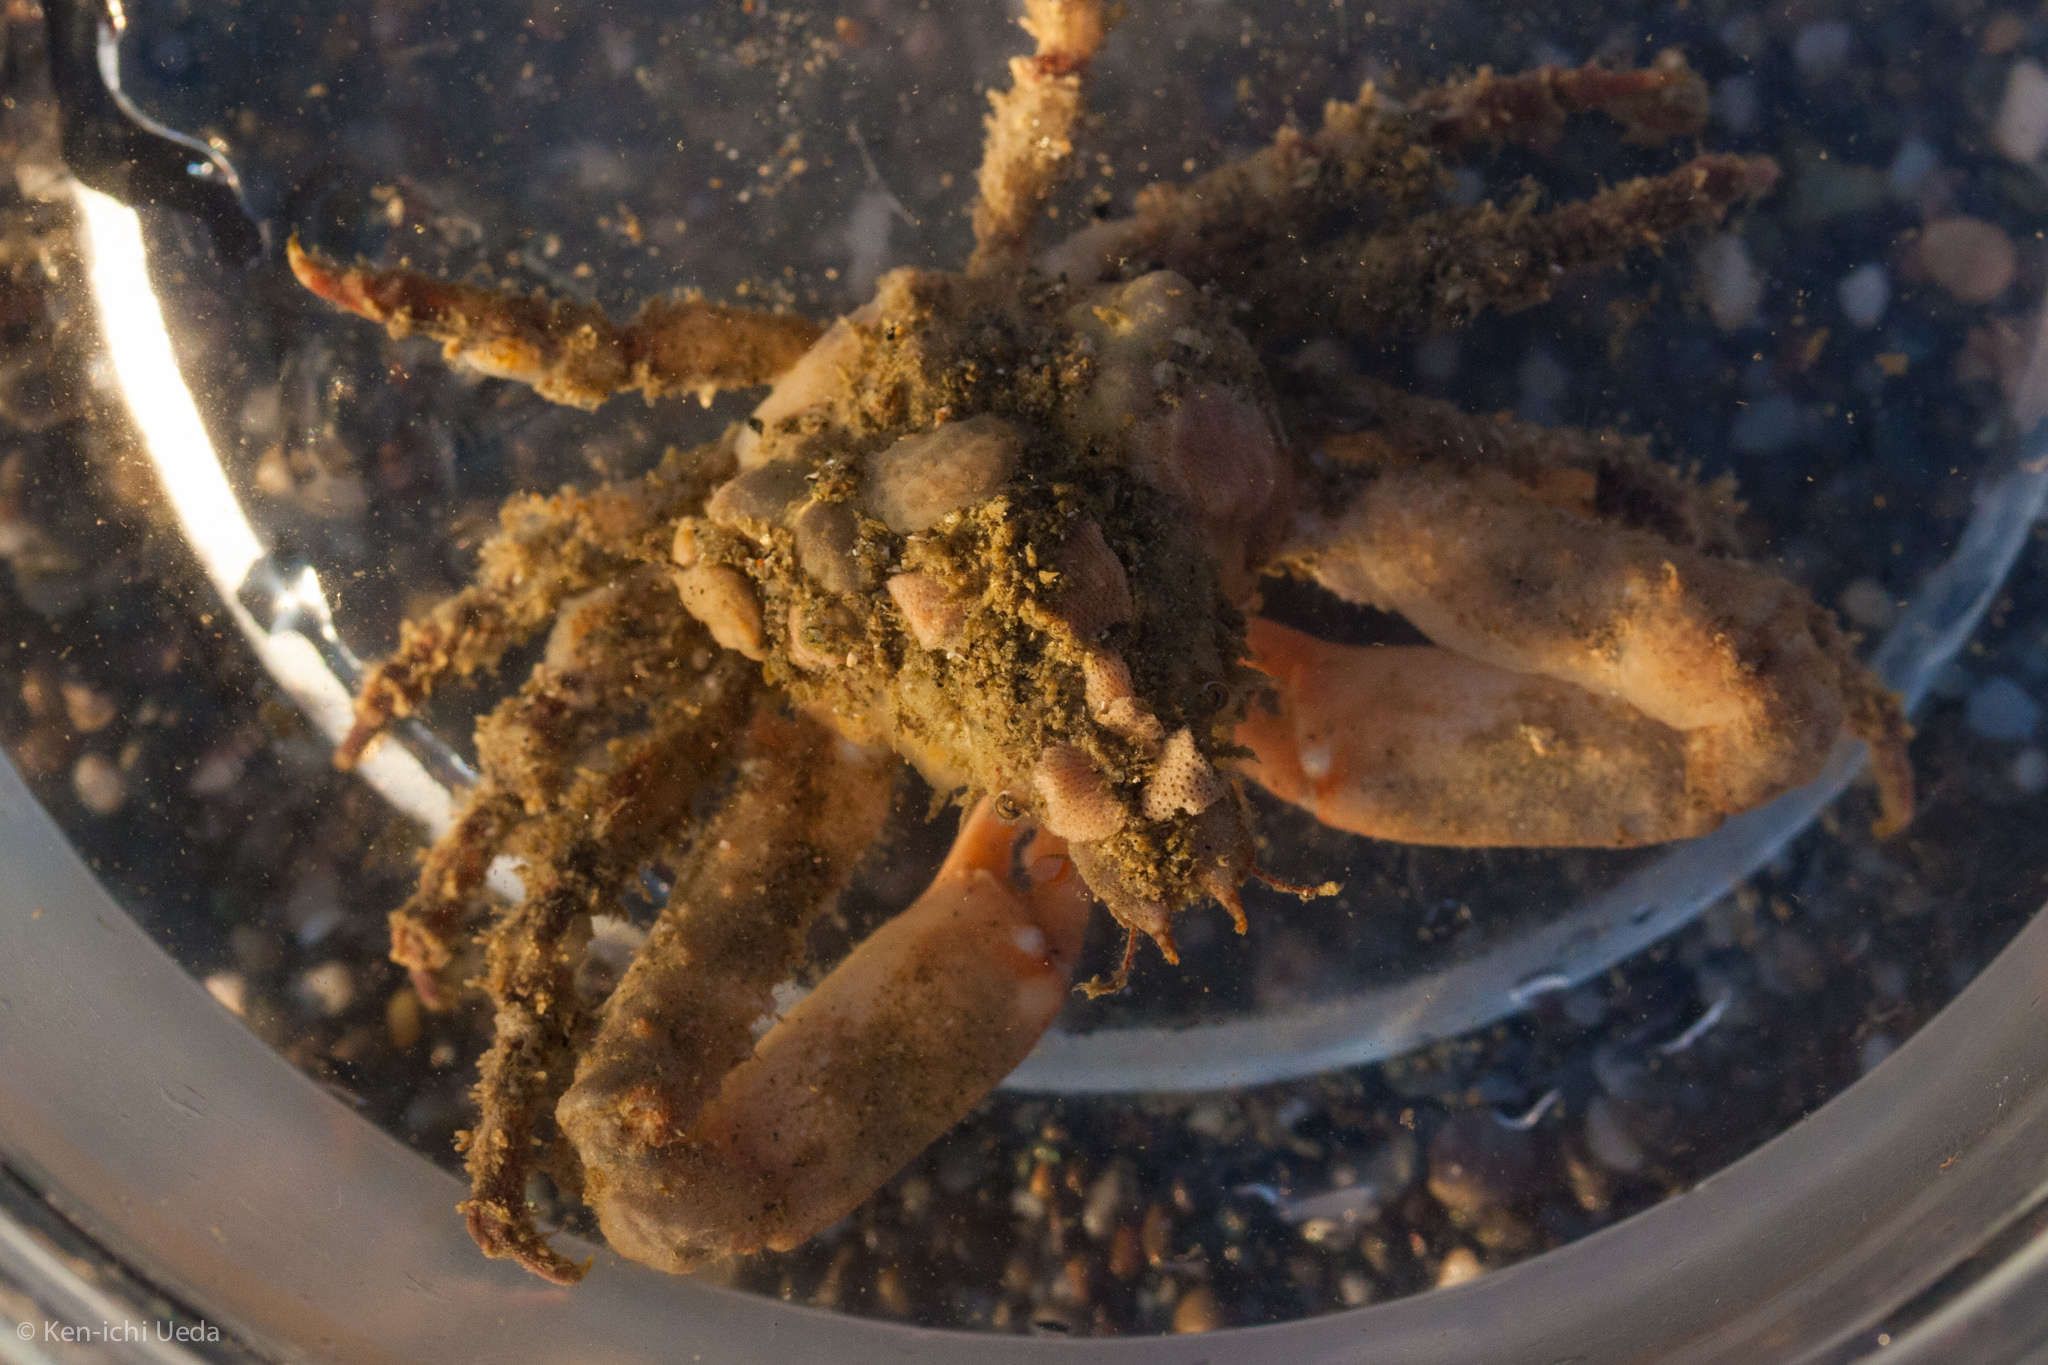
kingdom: Animalia
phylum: Arthropoda
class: Malacostraca
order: Decapoda
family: Epialtidae
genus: Scyra
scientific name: Scyra acutifrons
